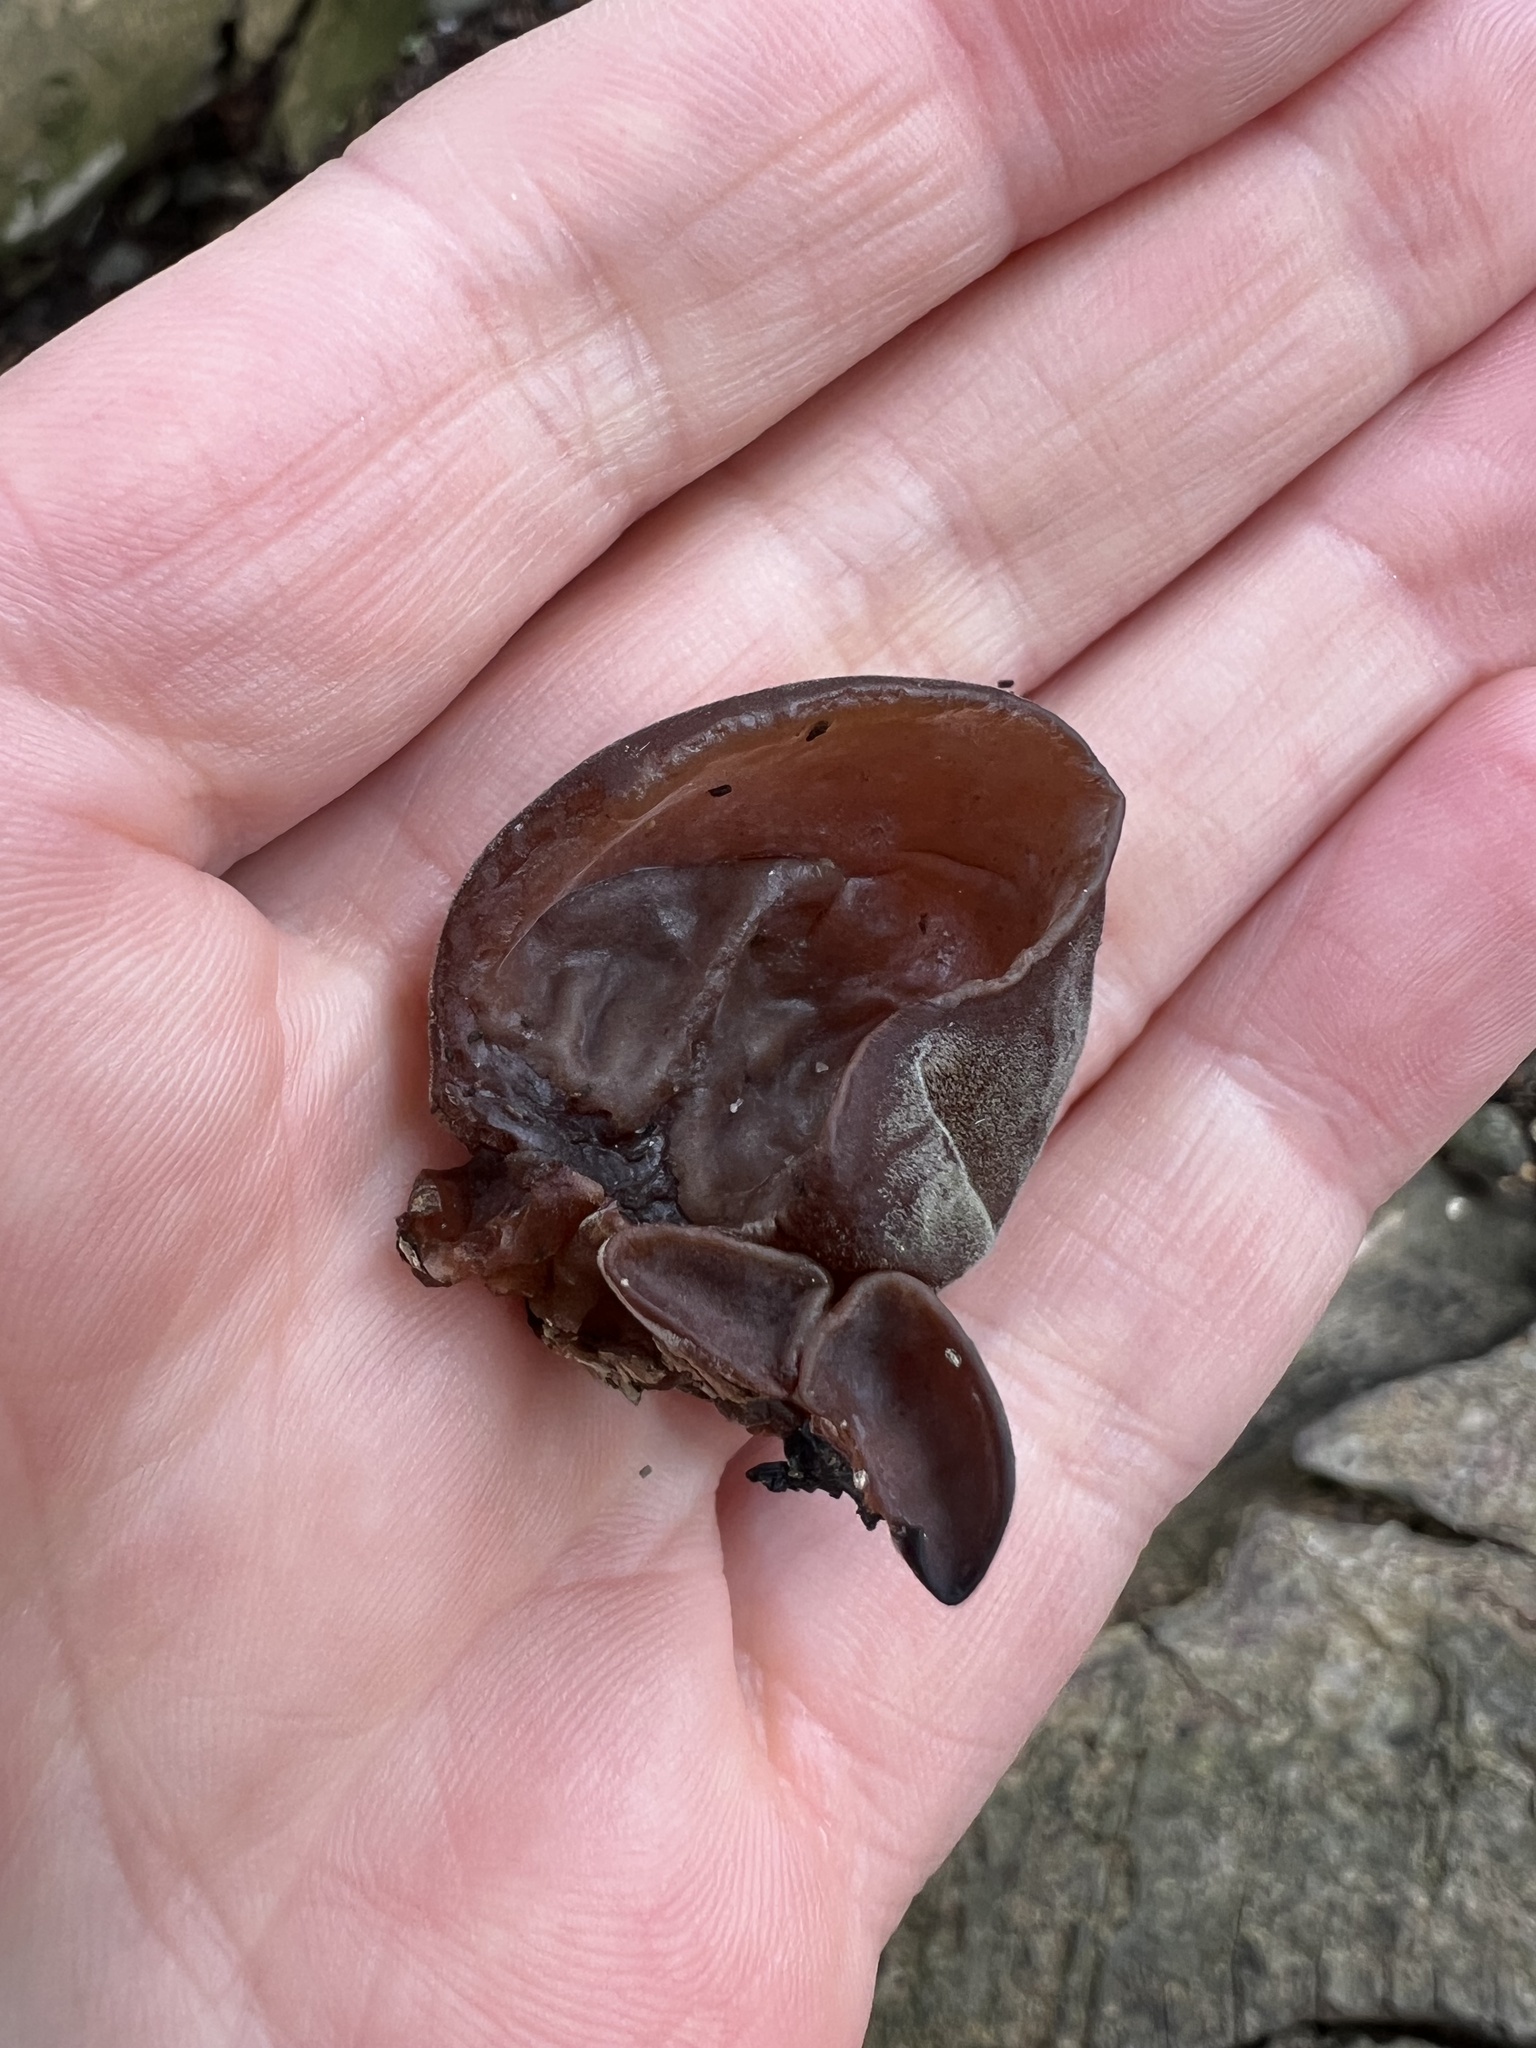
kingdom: Fungi
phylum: Basidiomycota
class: Agaricomycetes
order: Auriculariales
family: Auriculariaceae
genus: Auricularia
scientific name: Auricularia auricula-judae
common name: Jelly ear
